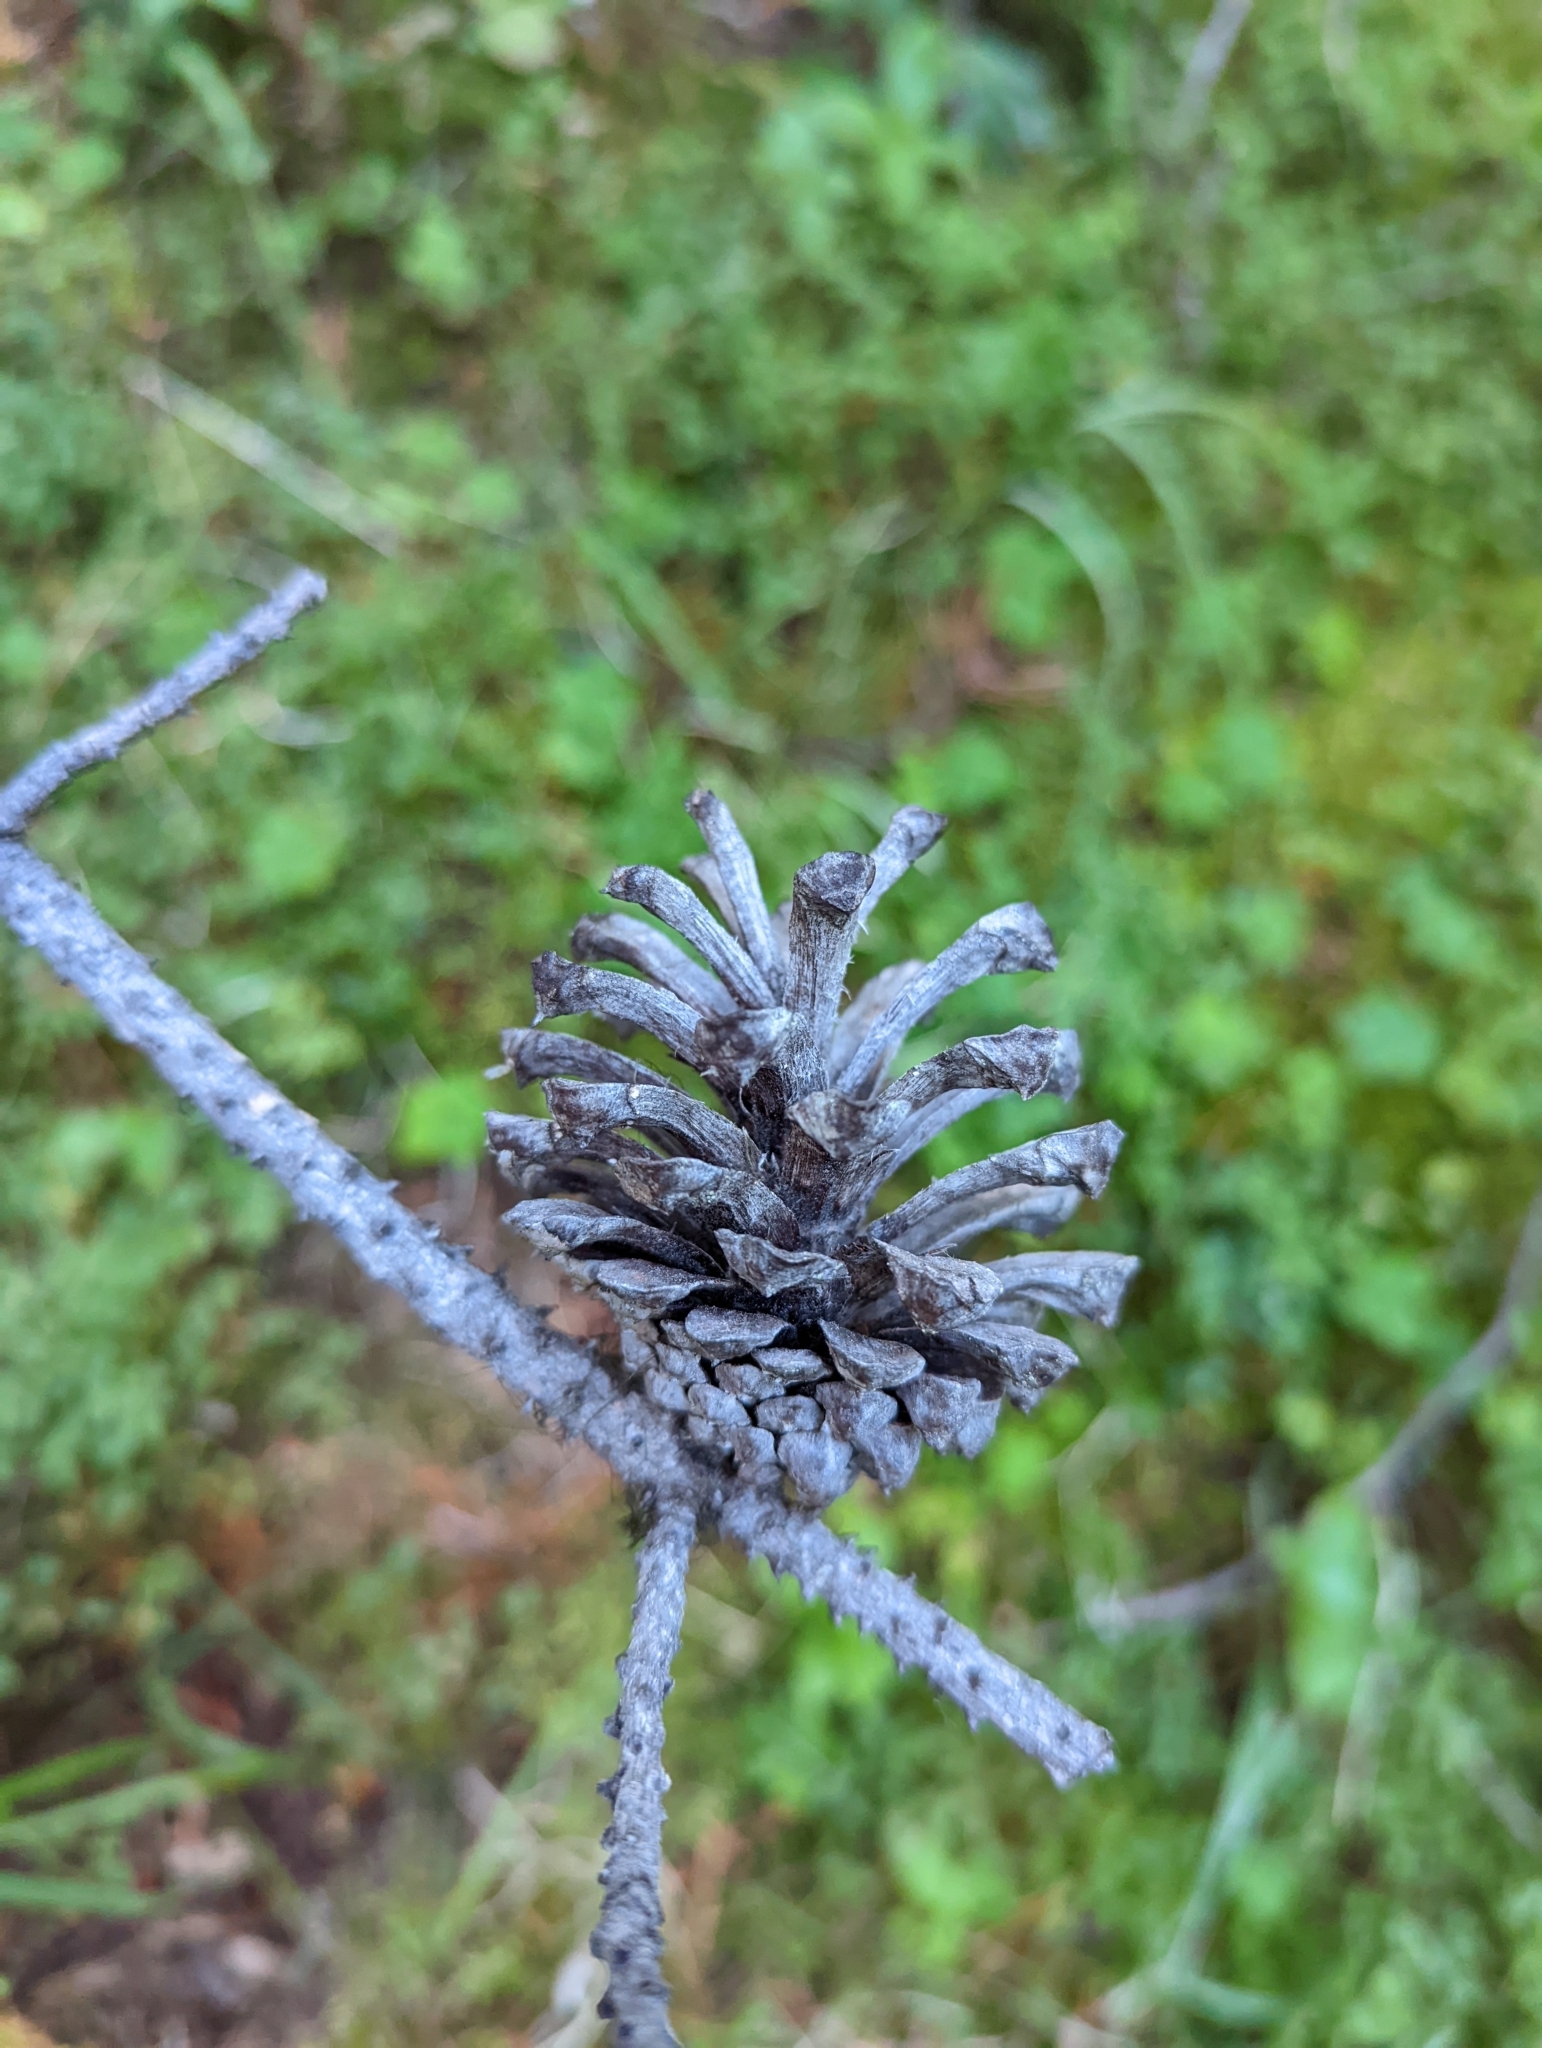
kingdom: Plantae
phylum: Tracheophyta
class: Pinopsida
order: Pinales
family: Pinaceae
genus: Pinus
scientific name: Pinus contorta
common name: Lodgepole pine
